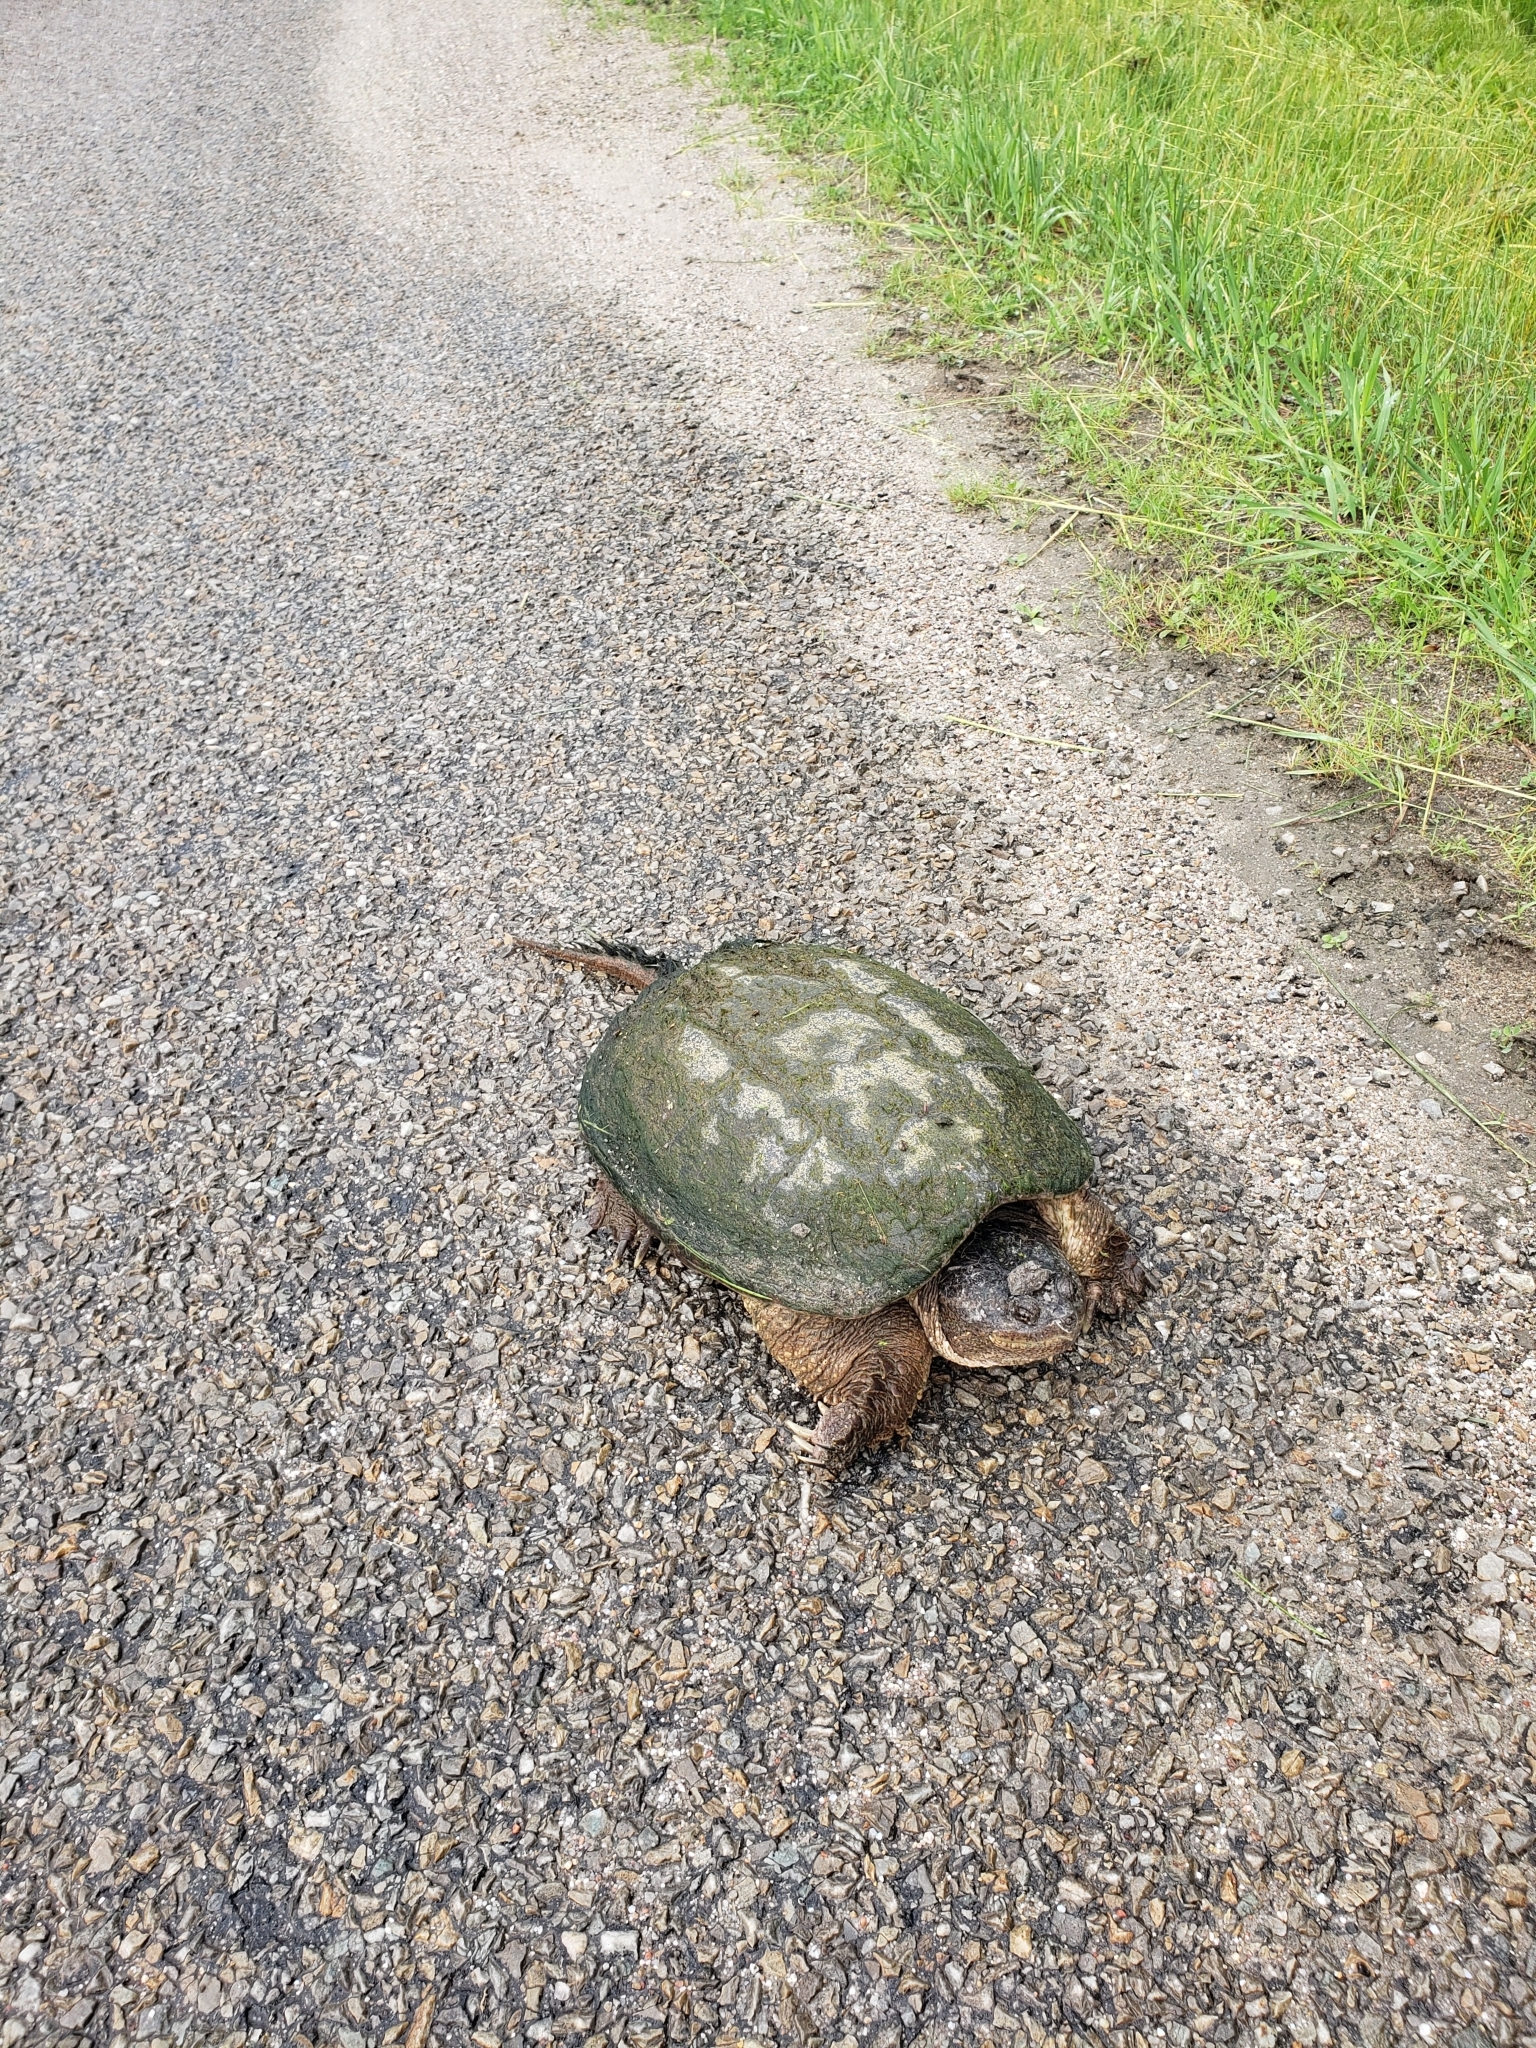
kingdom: Animalia
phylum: Chordata
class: Testudines
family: Chelydridae
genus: Chelydra
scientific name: Chelydra serpentina
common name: Common snapping turtle
